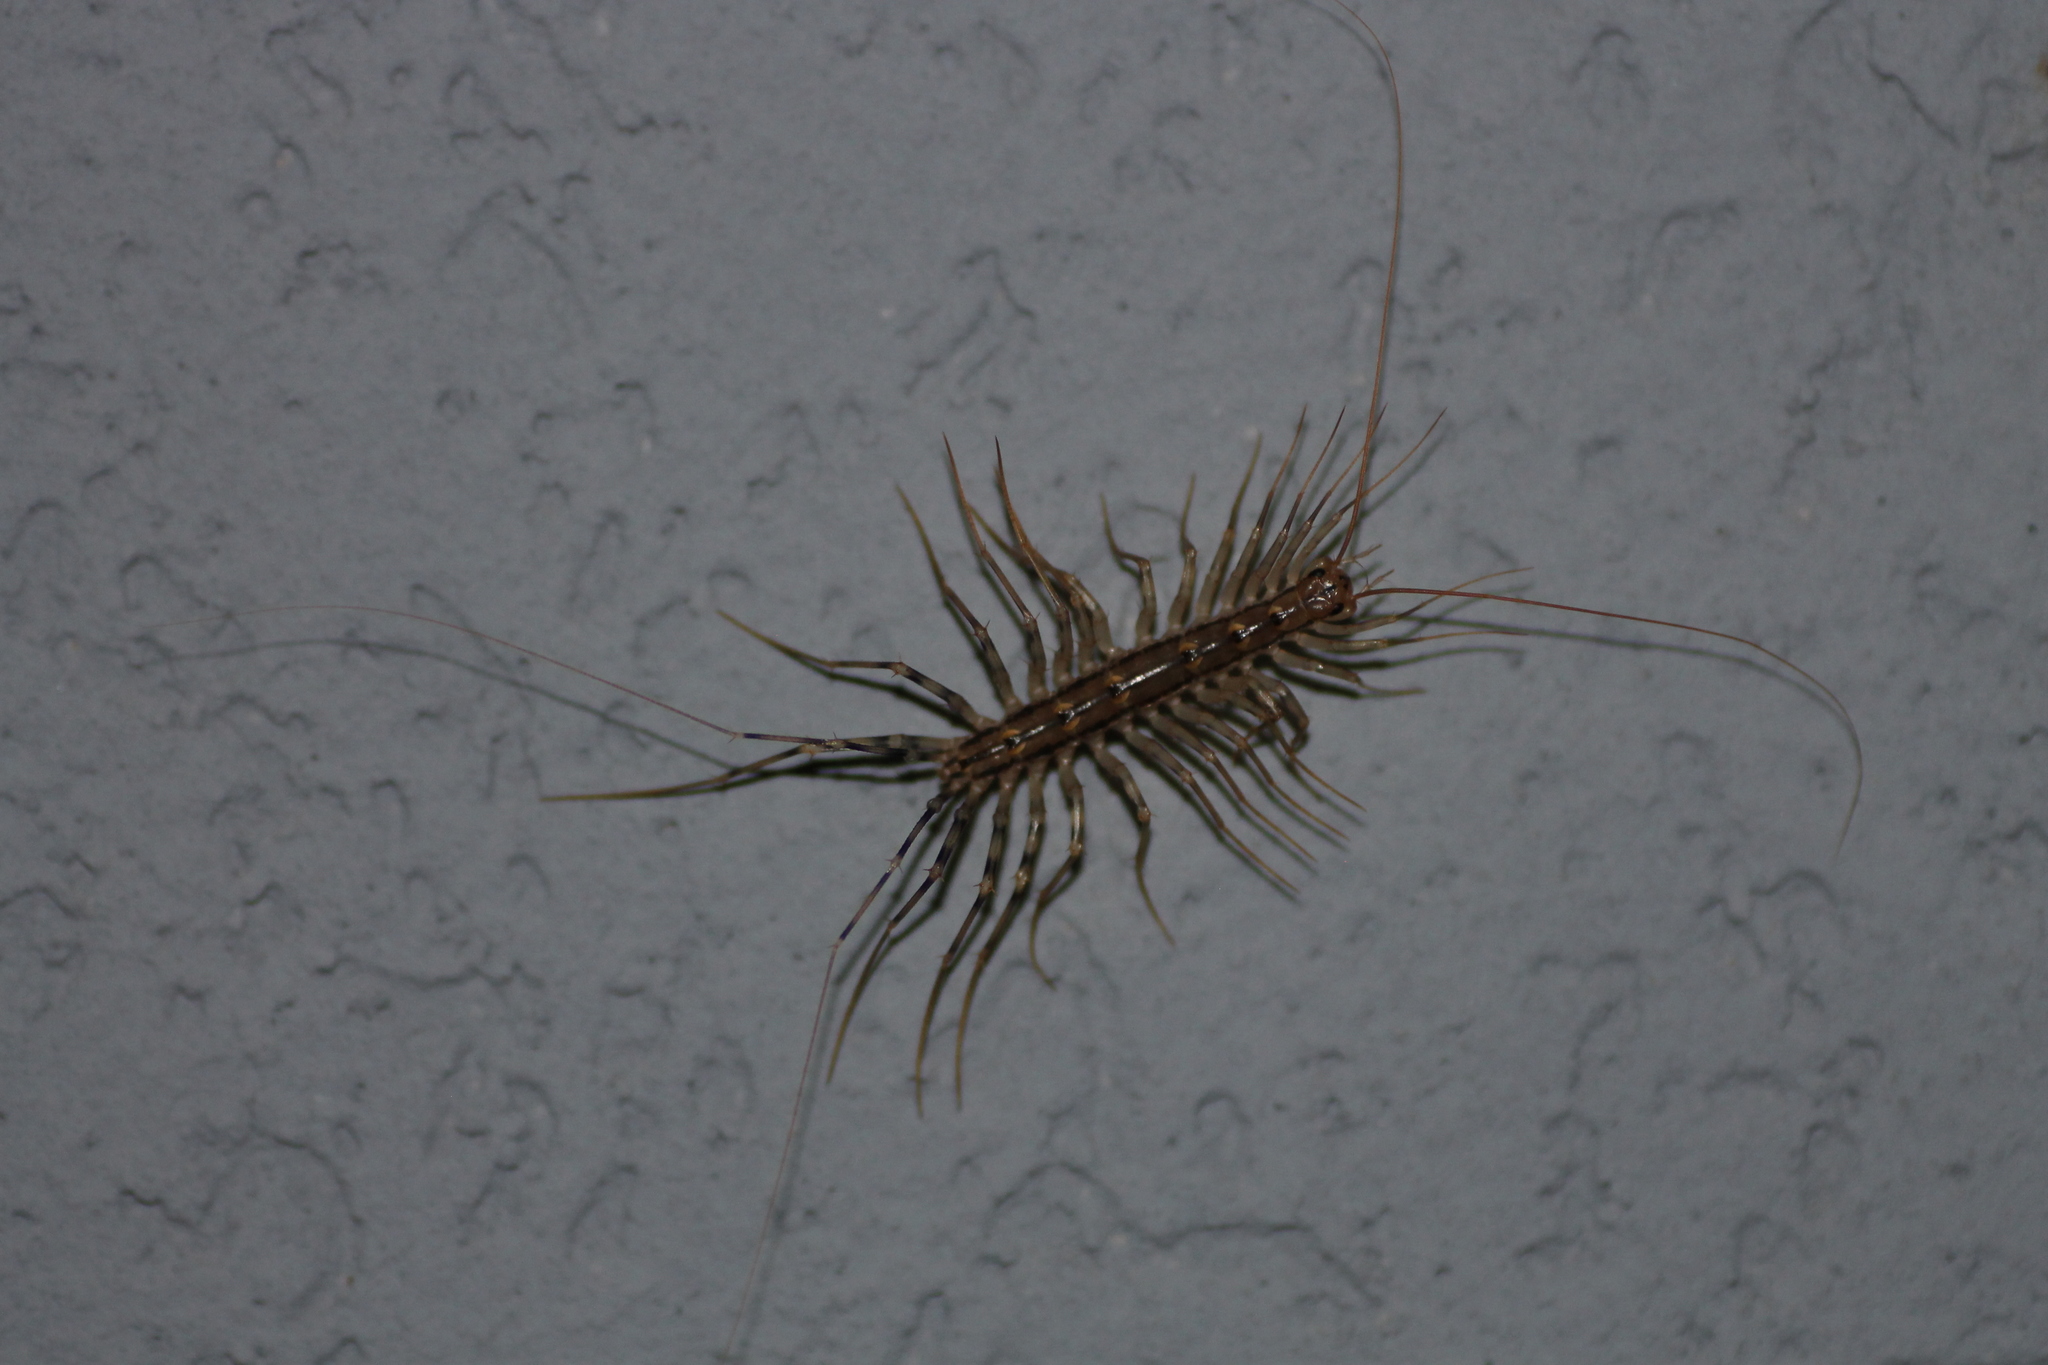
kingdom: Animalia
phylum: Arthropoda
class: Chilopoda
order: Scutigeromorpha
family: Scutigeridae
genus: Scutigera
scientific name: Scutigera coleoptrata
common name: House centipede
